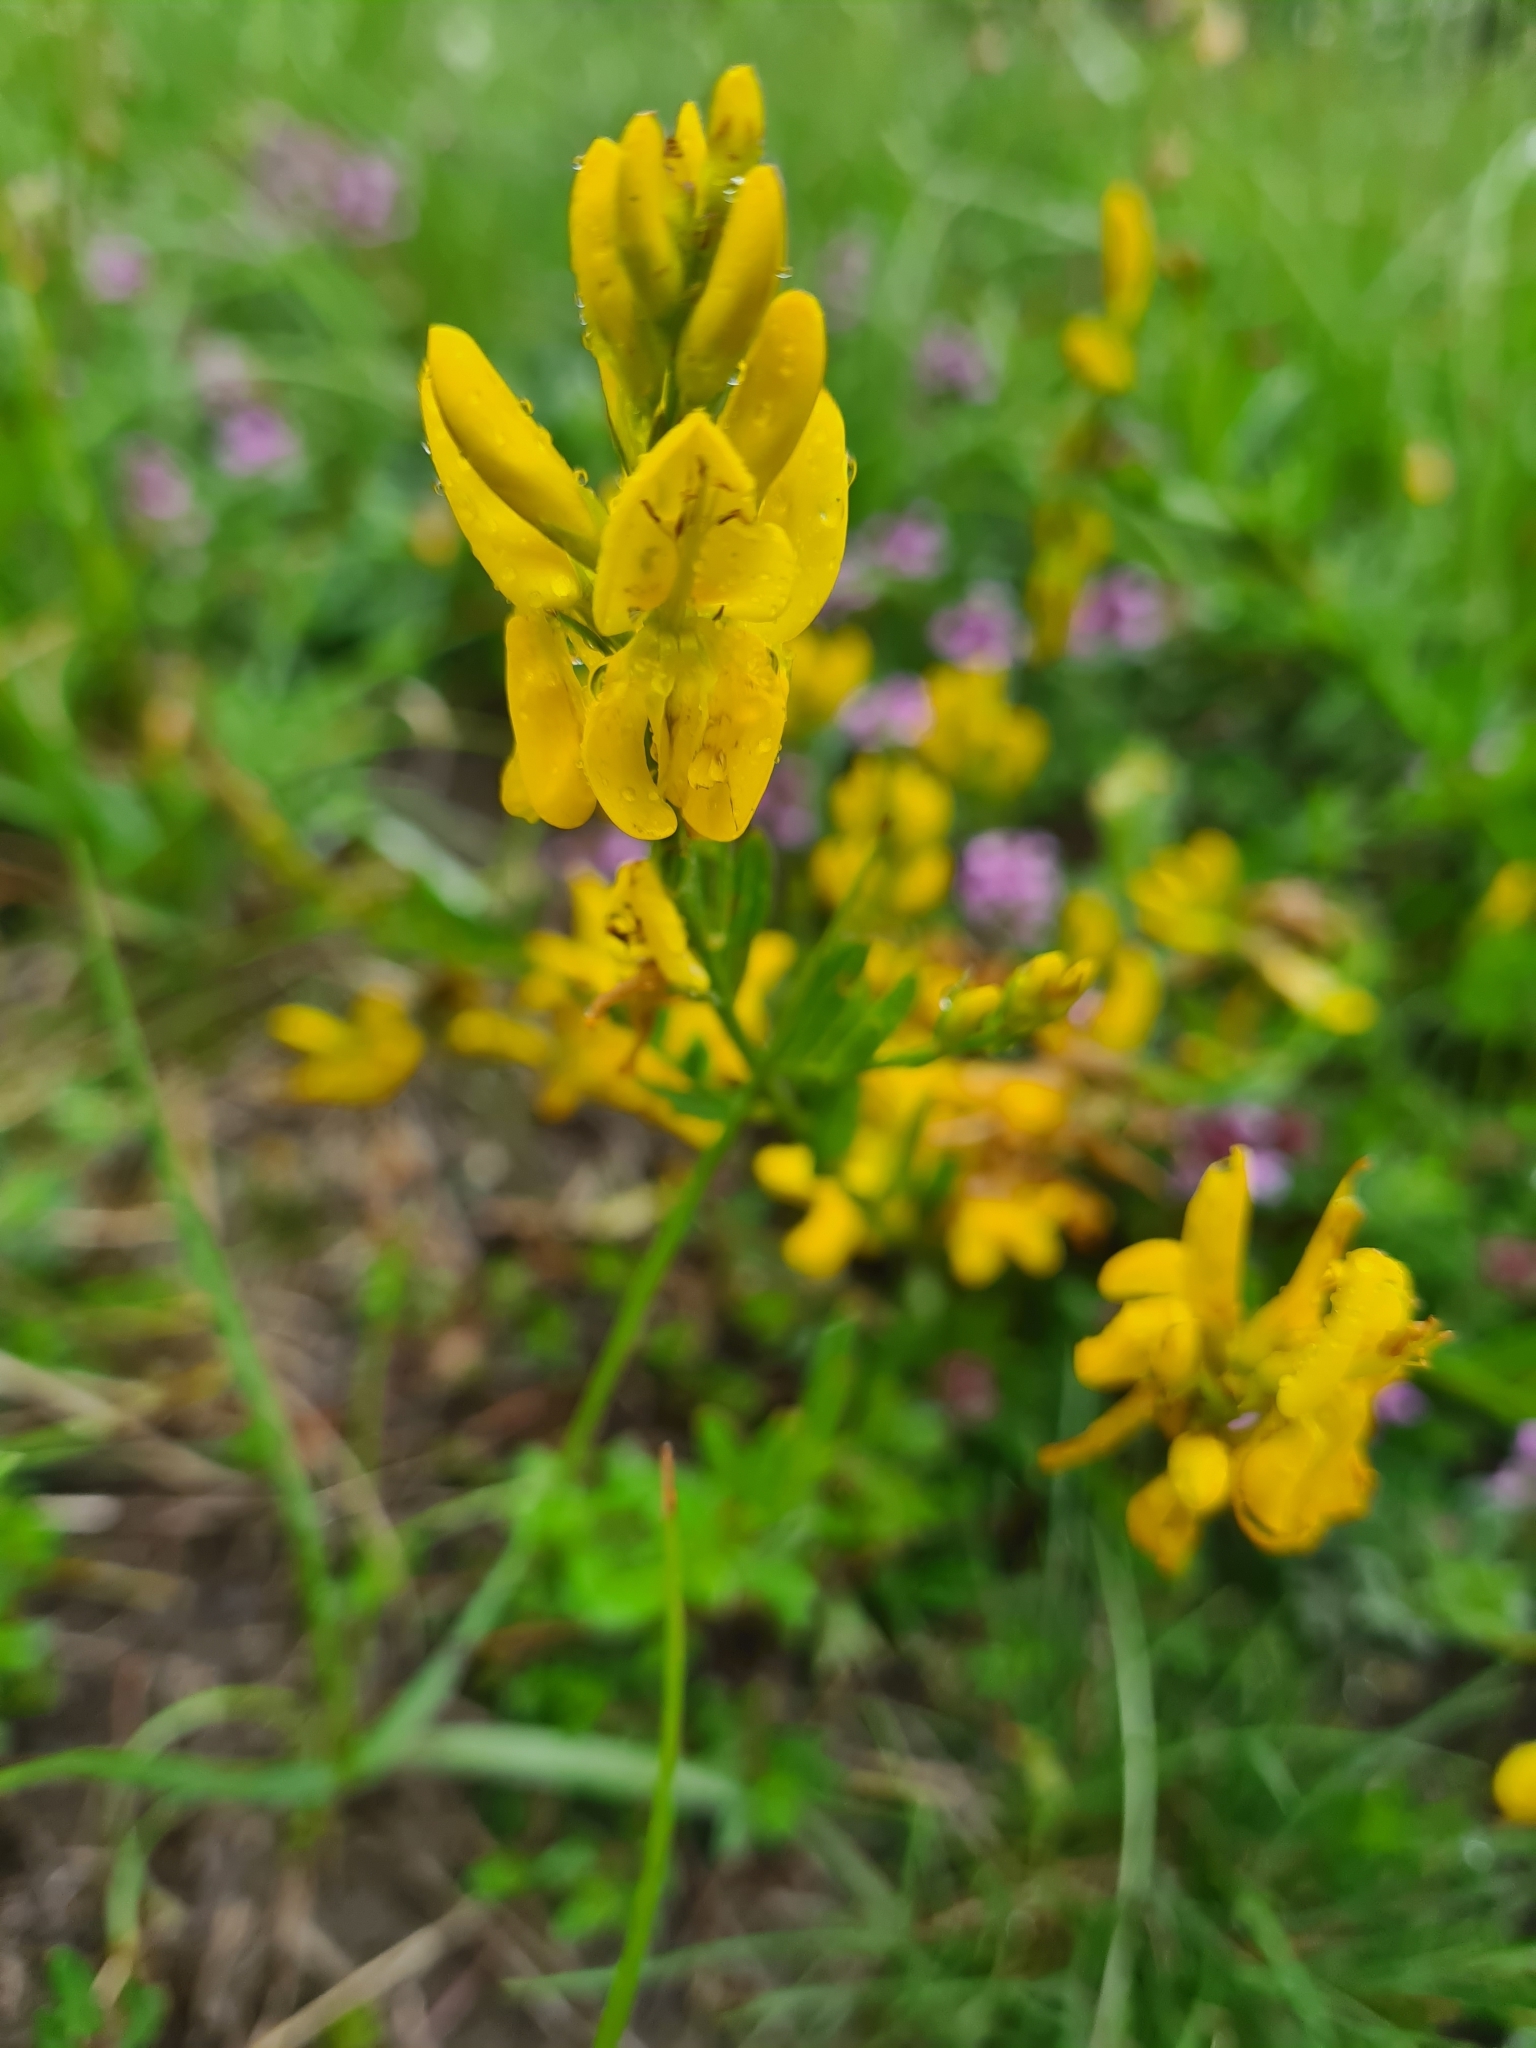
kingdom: Plantae
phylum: Tracheophyta
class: Magnoliopsida
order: Fabales
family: Fabaceae
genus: Genista
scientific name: Genista tinctoria
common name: Dyer's greenweed
